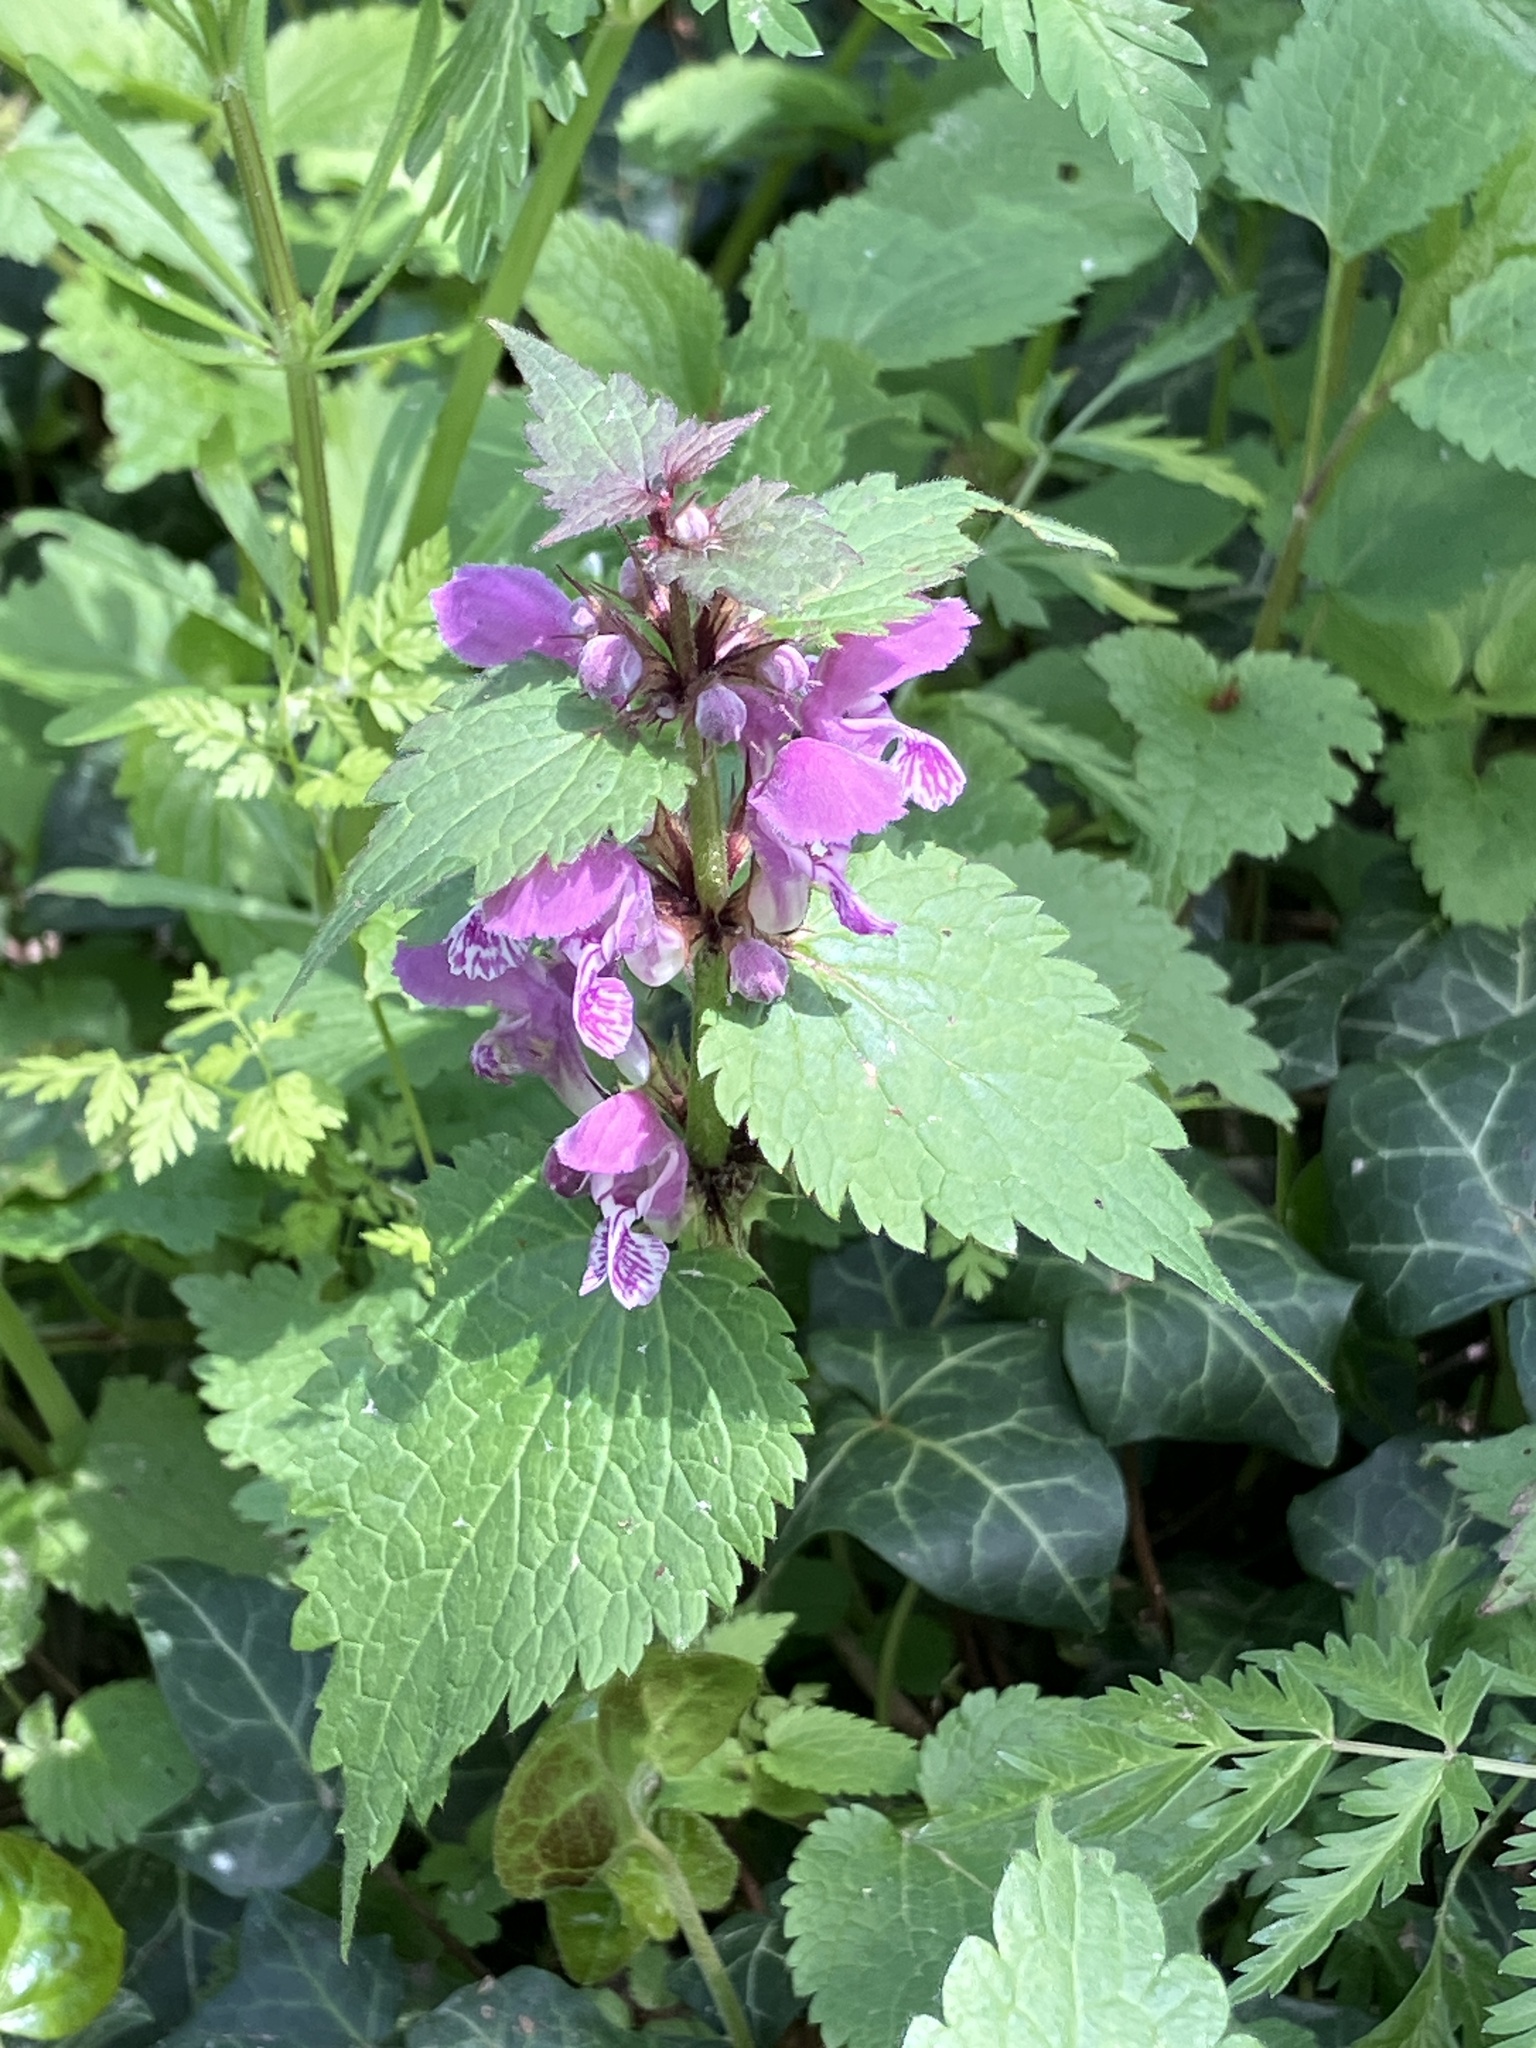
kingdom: Plantae
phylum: Tracheophyta
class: Magnoliopsida
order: Lamiales
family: Lamiaceae
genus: Lamium
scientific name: Lamium maculatum
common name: Spotted dead-nettle
